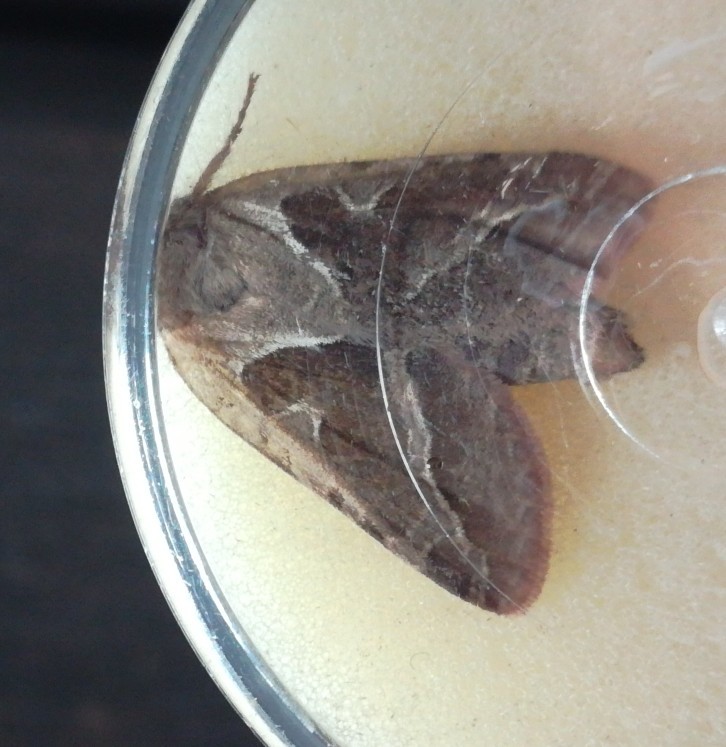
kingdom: Animalia
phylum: Arthropoda
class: Insecta
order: Lepidoptera
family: Hepialidae
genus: Triodia
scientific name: Triodia sylvina
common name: Orange swift
